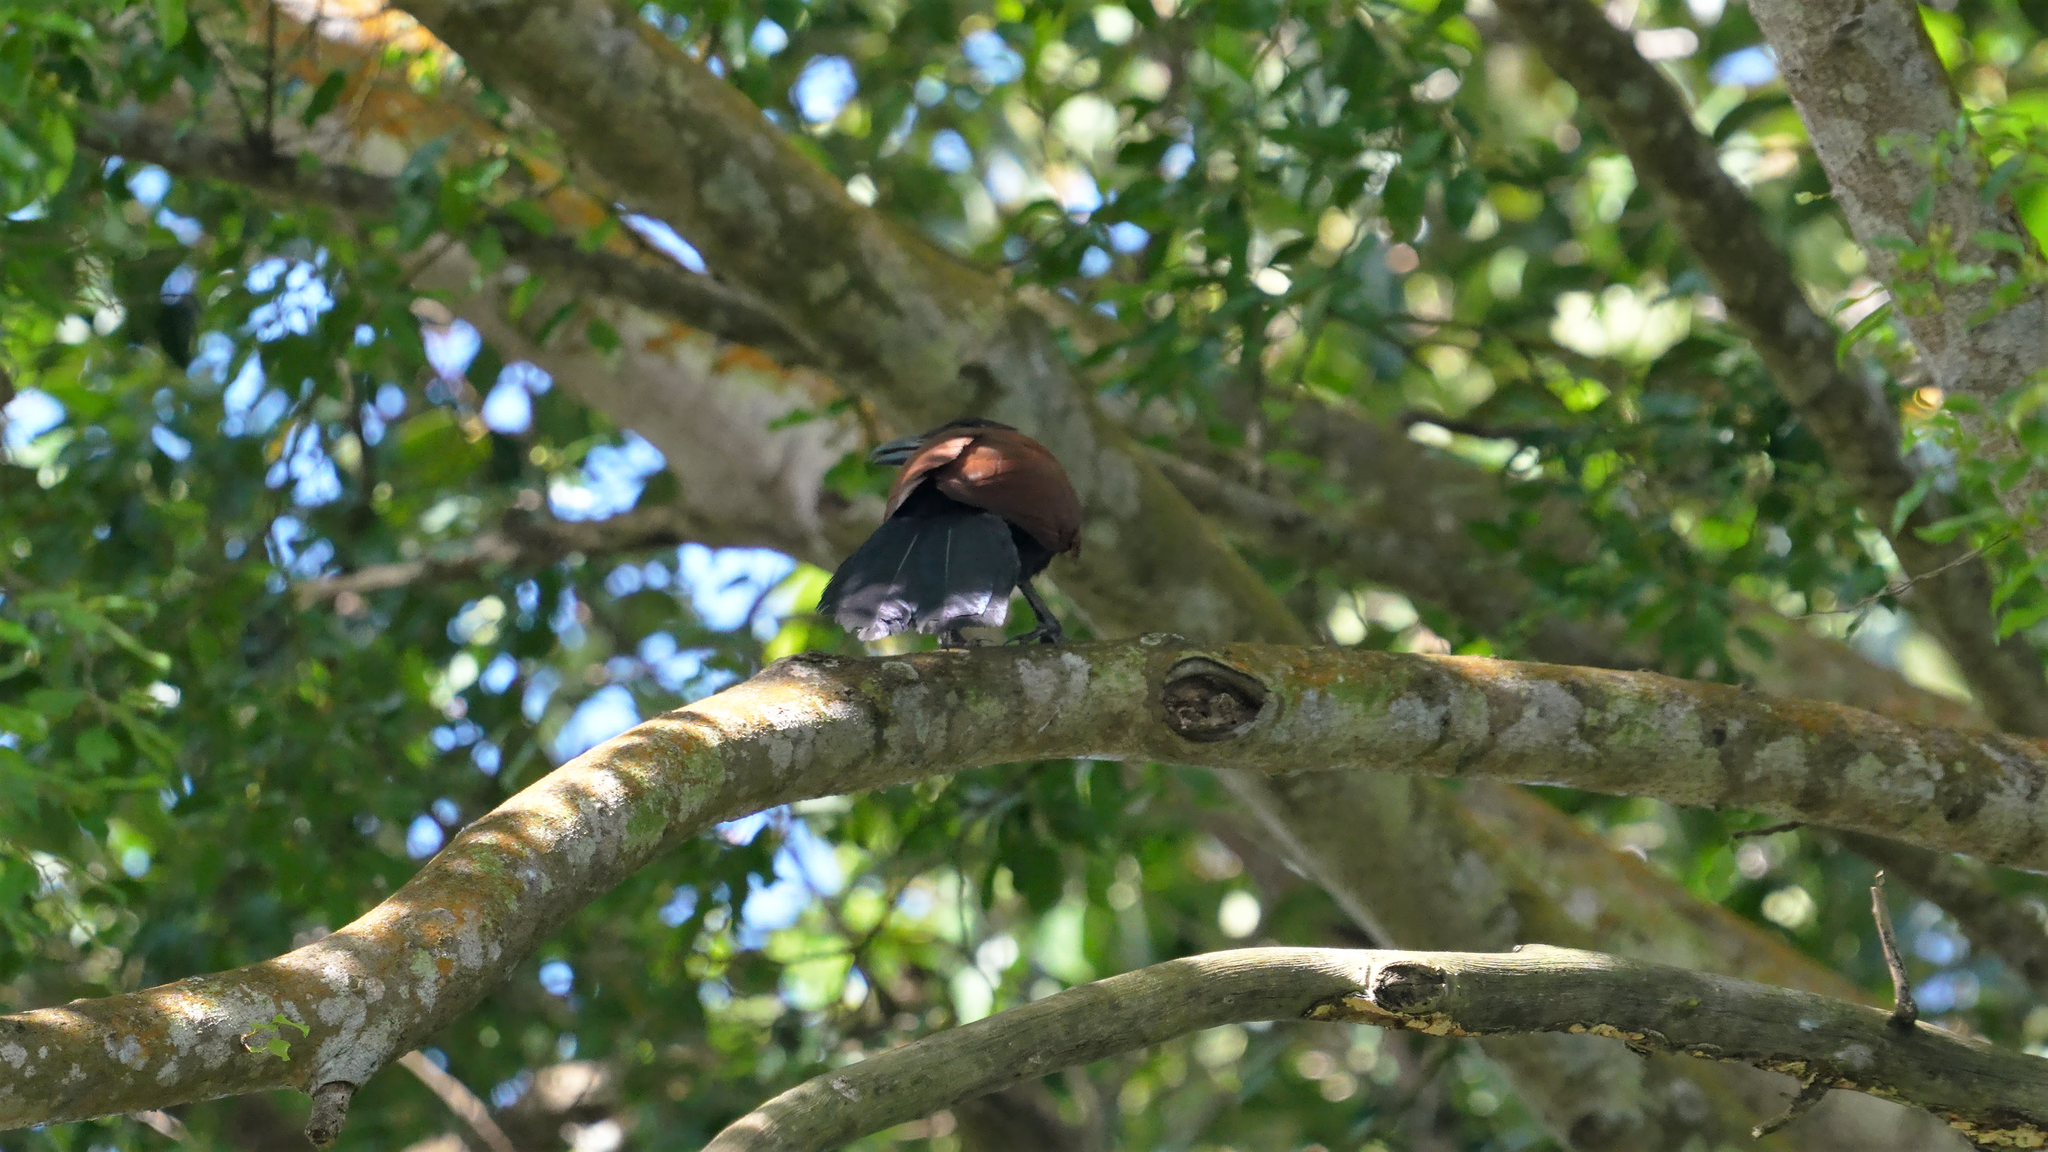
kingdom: Animalia
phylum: Chordata
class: Aves
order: Cuculiformes
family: Cuculidae
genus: Centropus
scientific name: Centropus sinensis
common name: Greater coucal
